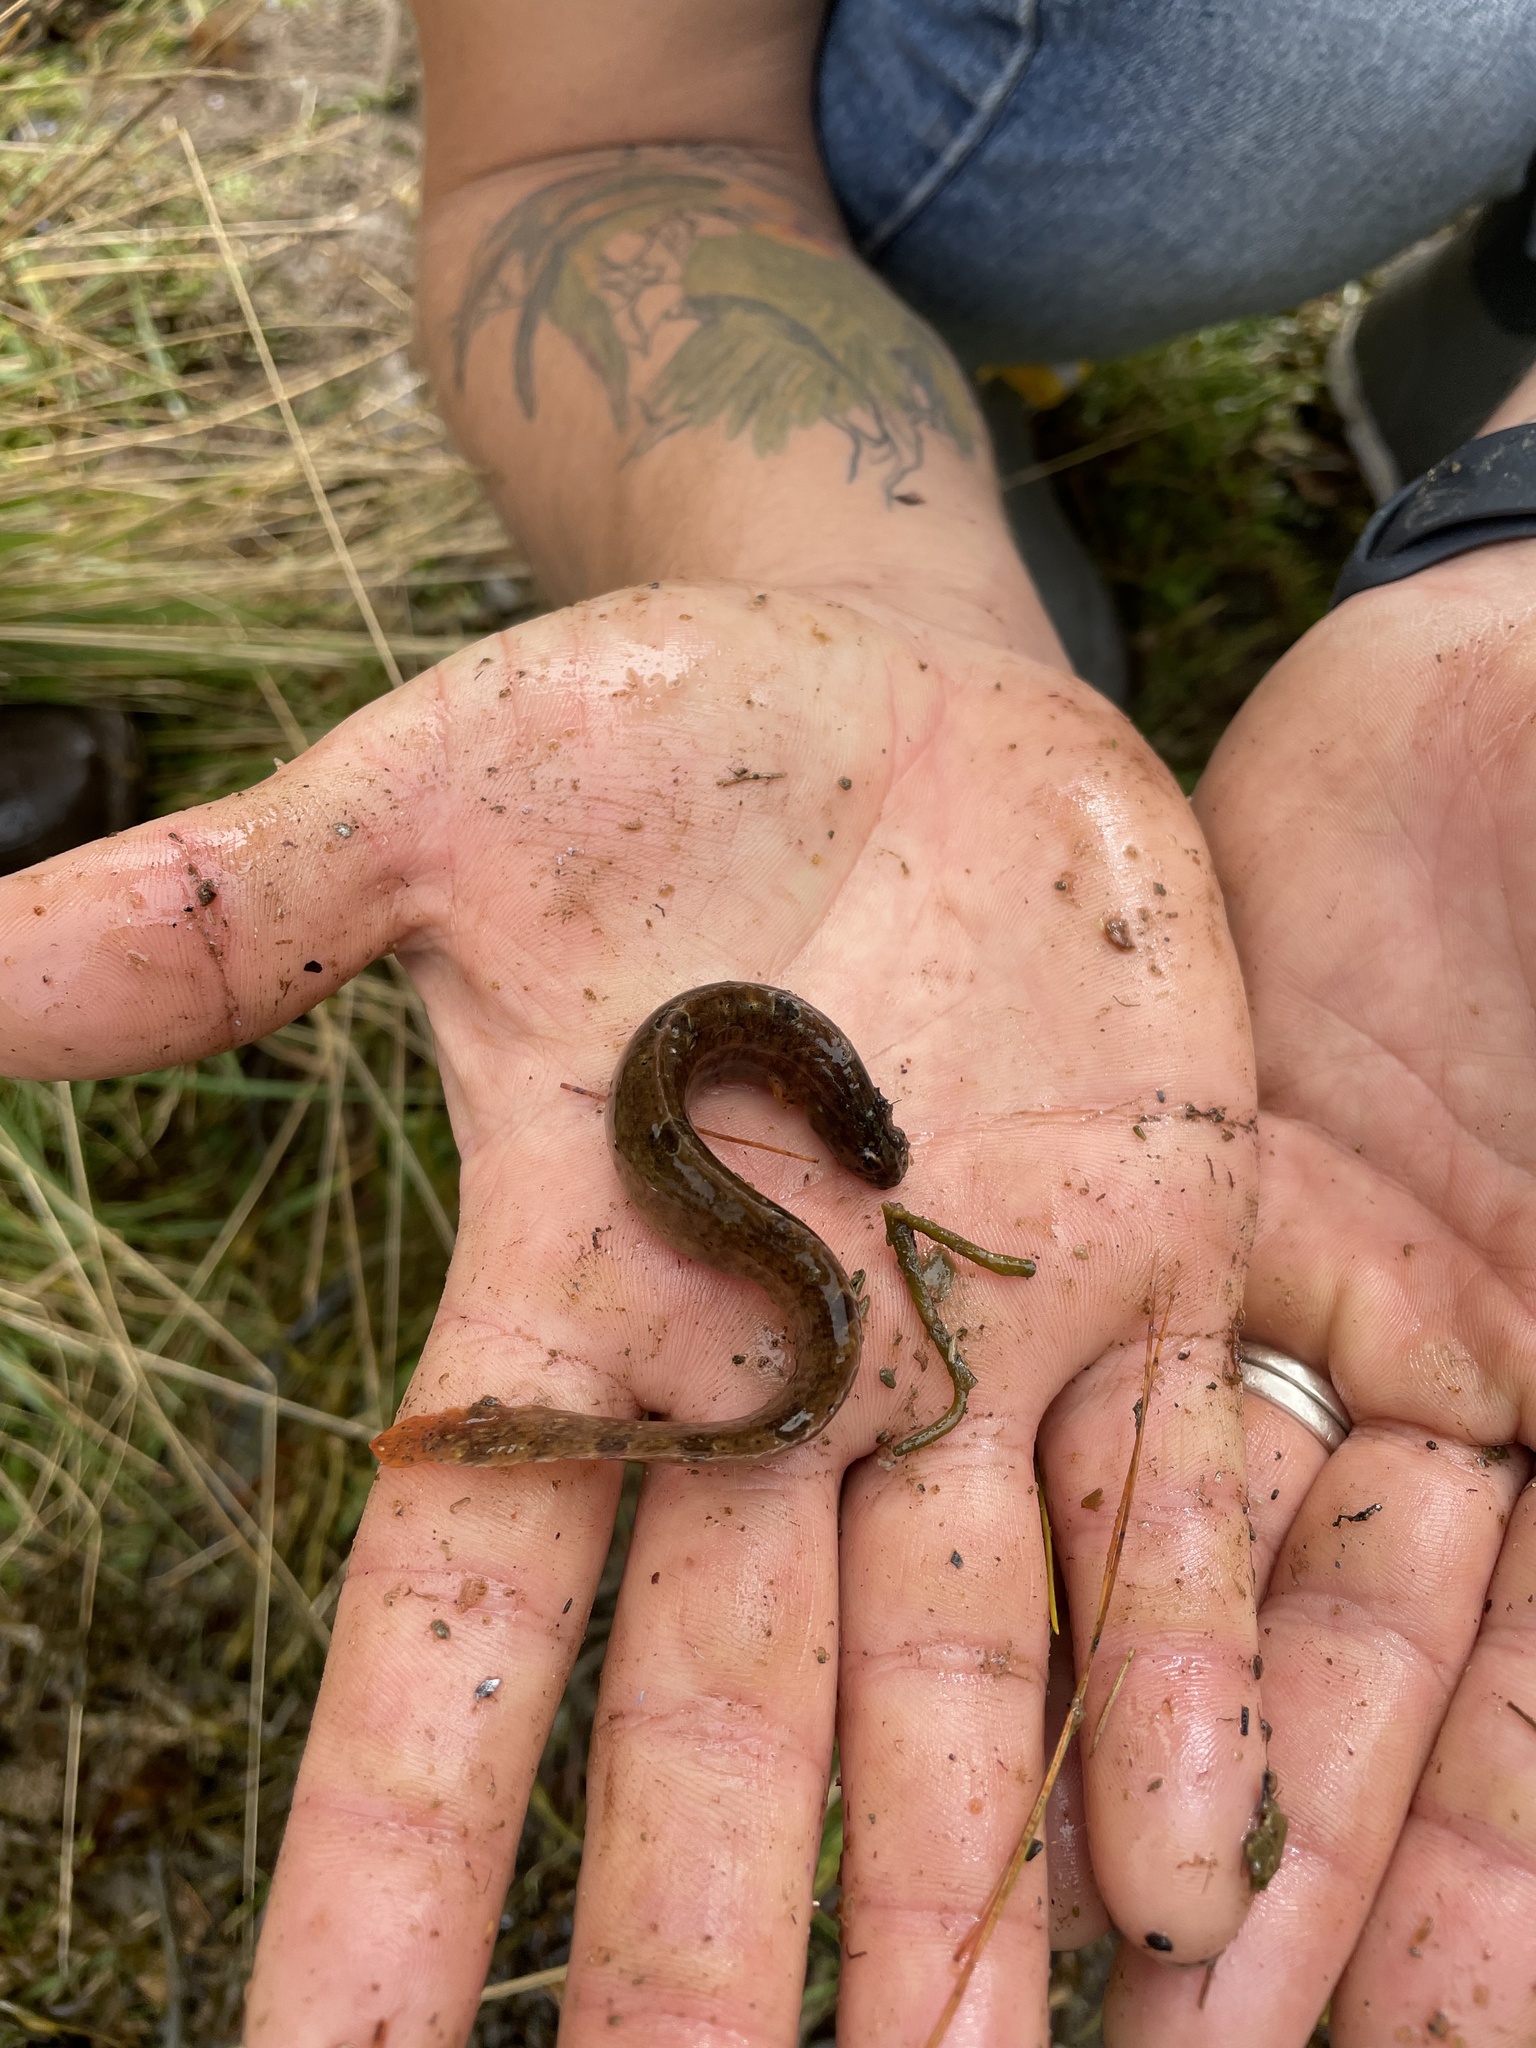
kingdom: Animalia
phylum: Chordata
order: Perciformes
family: Pholidae
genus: Pholis
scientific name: Pholis gunnellus
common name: Butterfish
